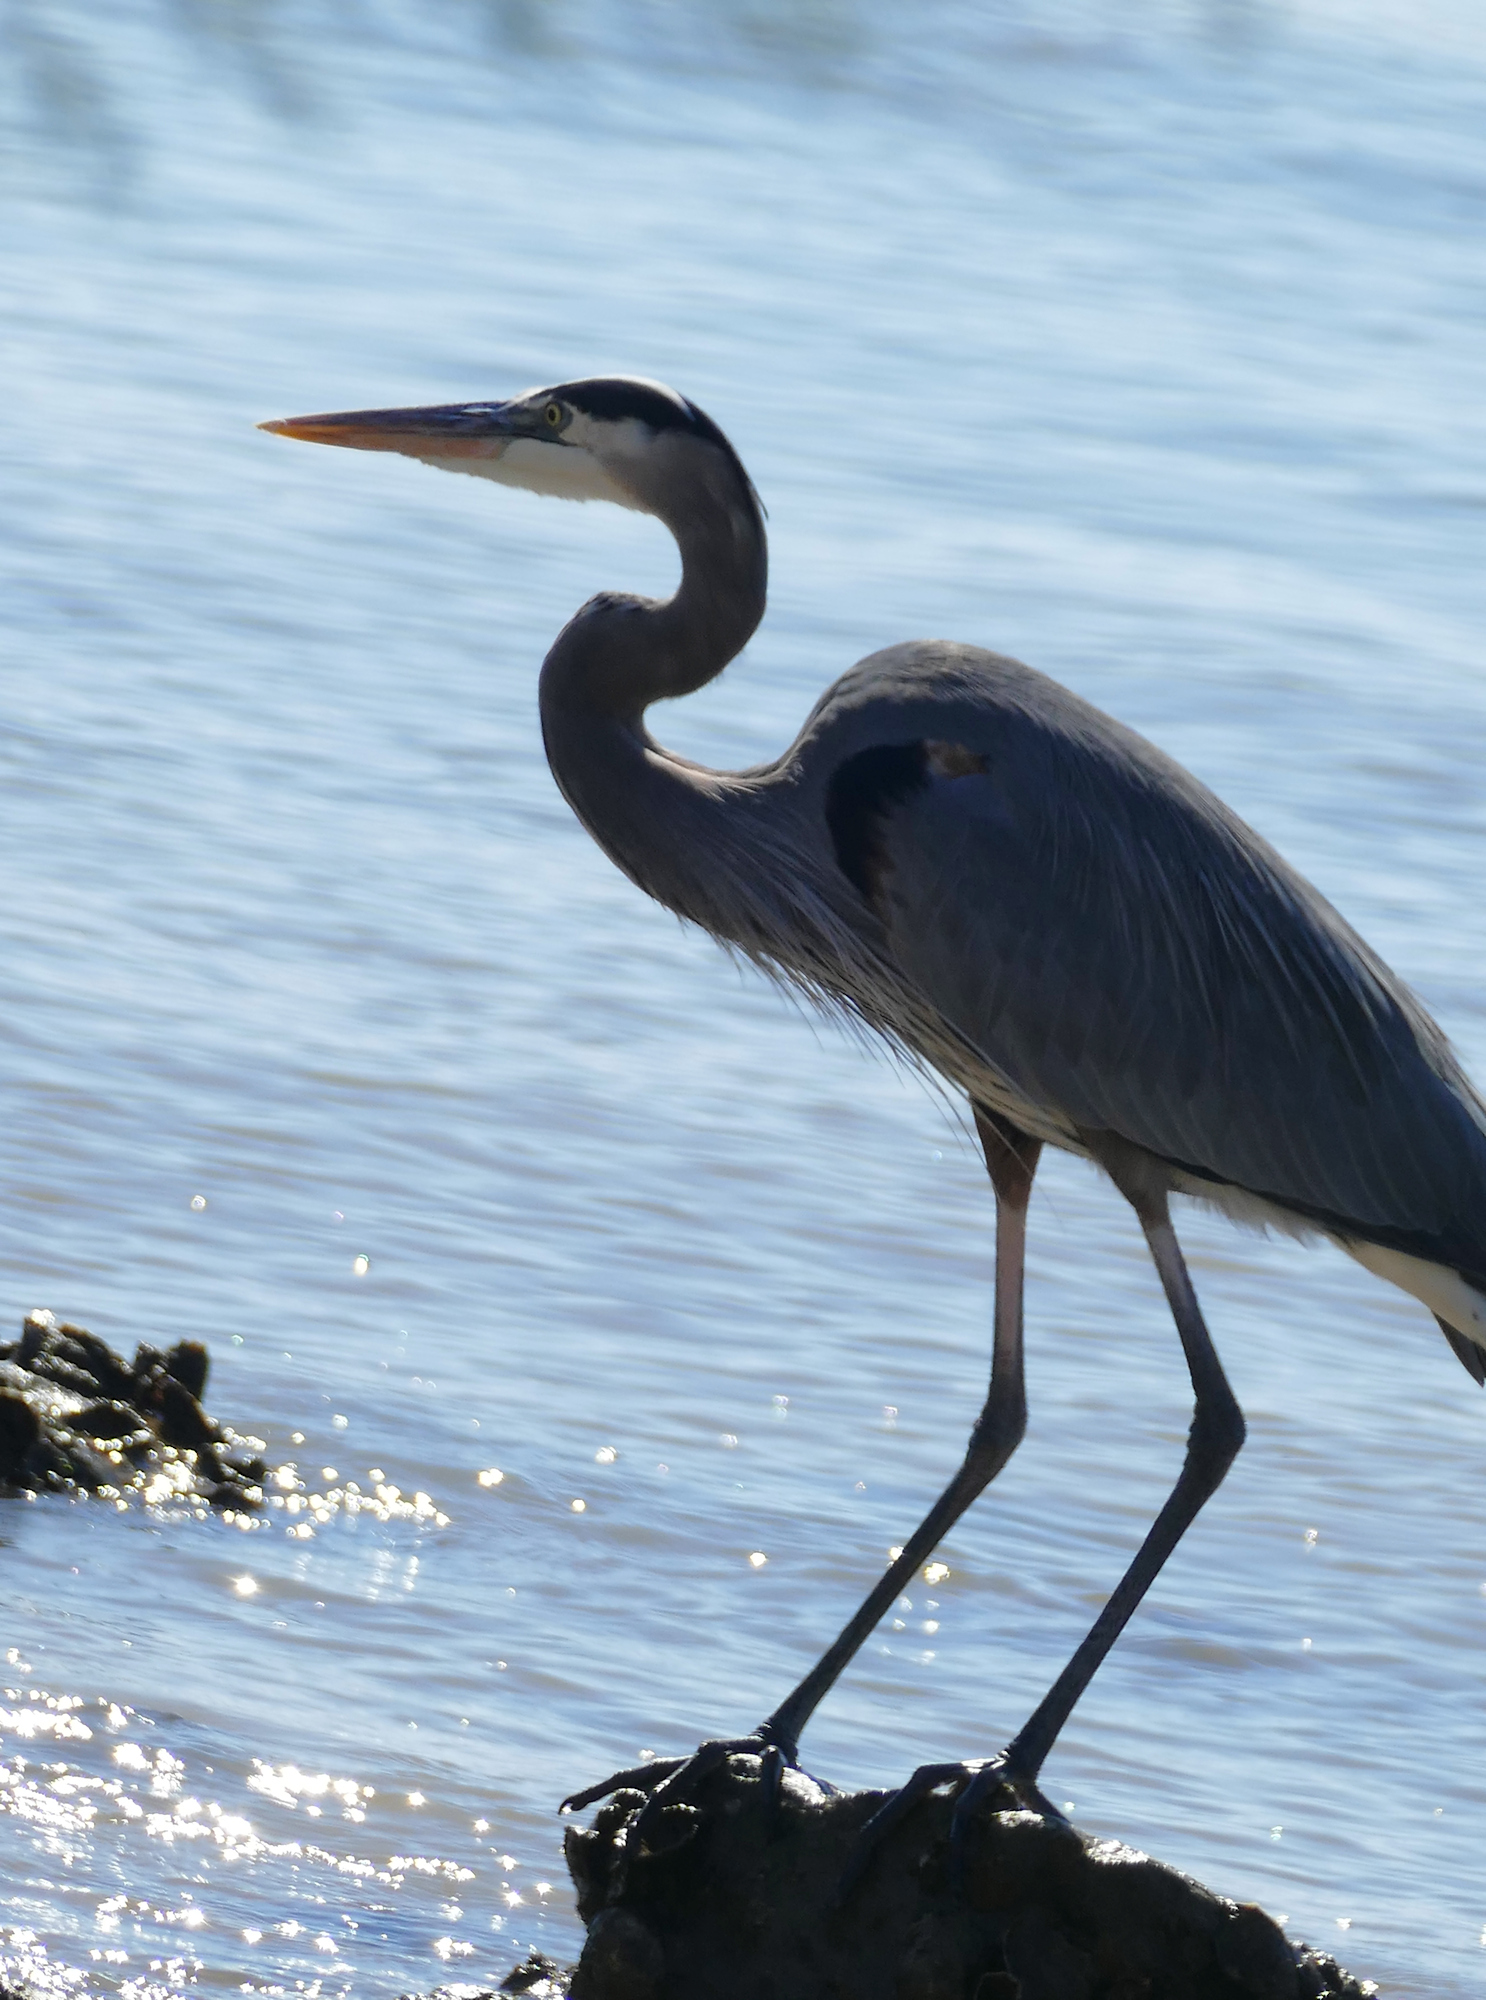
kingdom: Animalia
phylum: Chordata
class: Aves
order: Pelecaniformes
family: Ardeidae
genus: Ardea
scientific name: Ardea herodias
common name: Great blue heron
